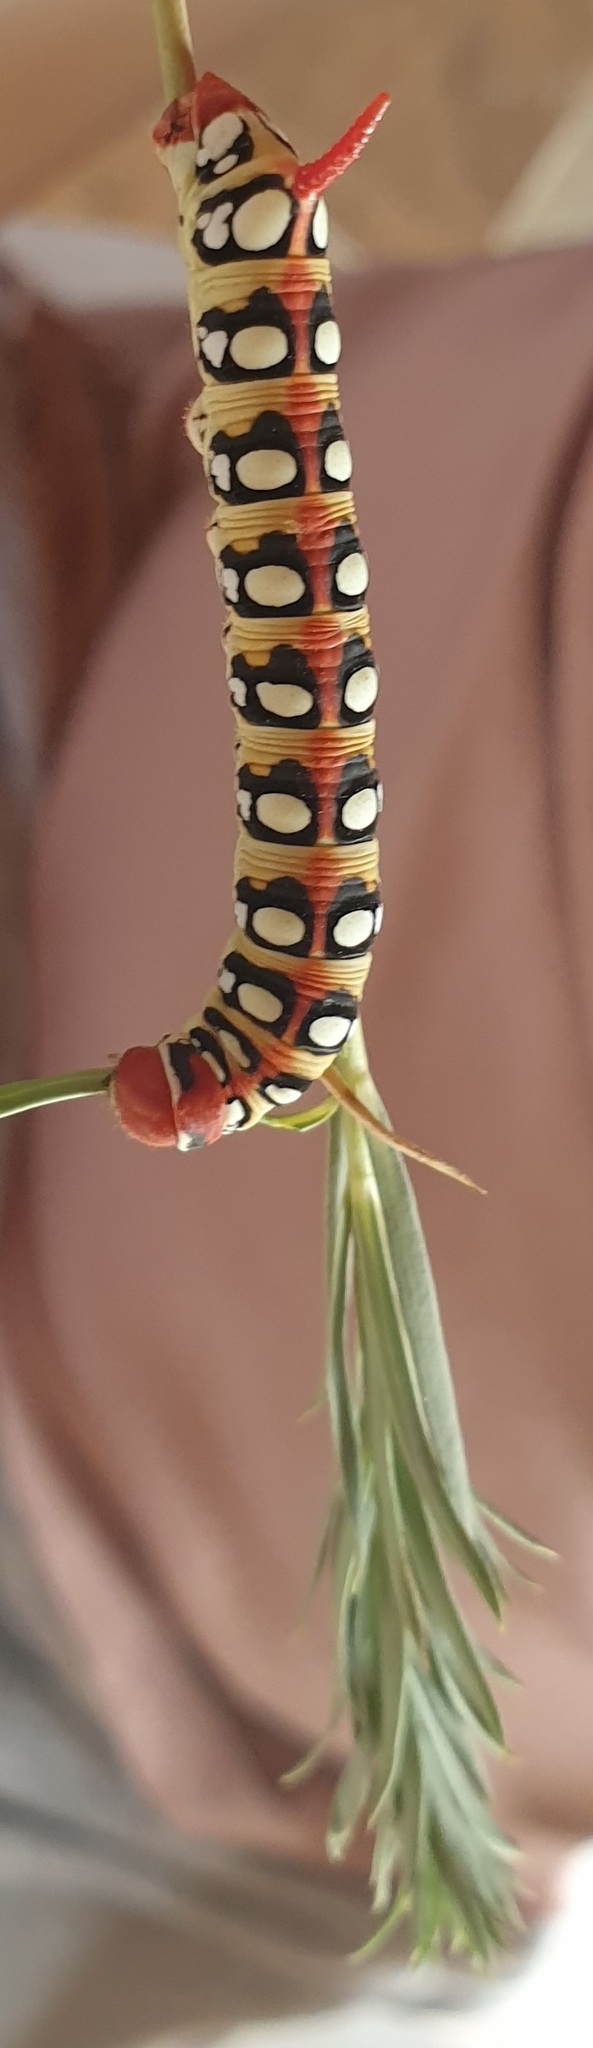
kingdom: Animalia
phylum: Arthropoda
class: Insecta
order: Lepidoptera
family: Sphingidae
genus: Hyles
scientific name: Hyles euphorbiae
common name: Spurge hawk-moth
